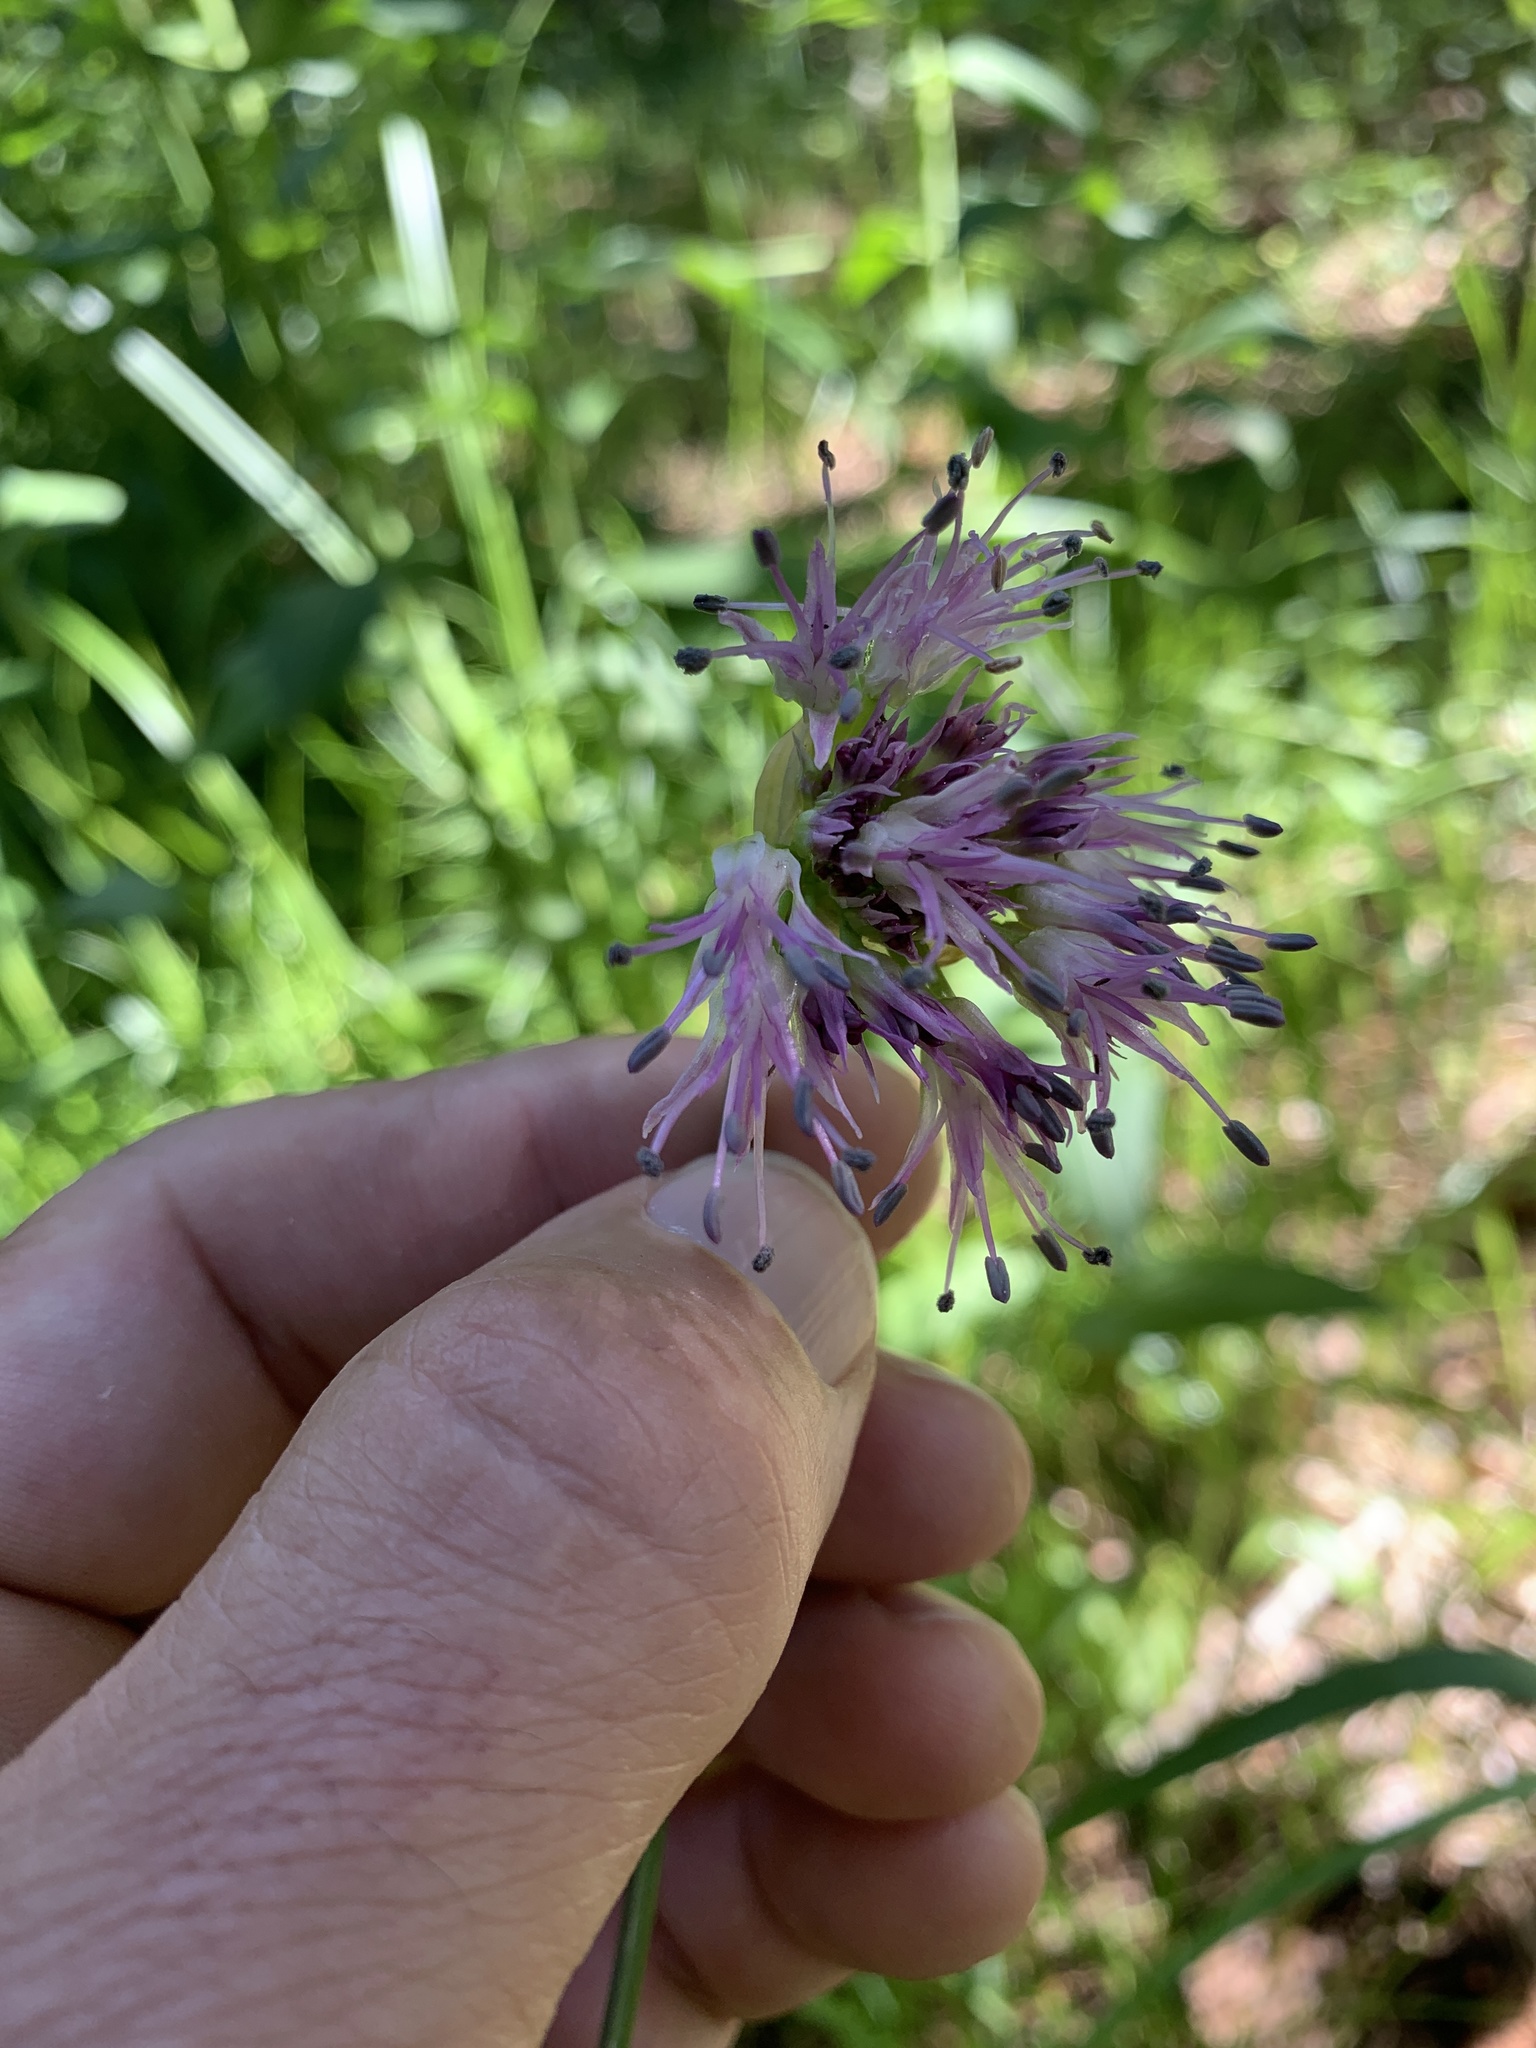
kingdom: Plantae
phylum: Tracheophyta
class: Liliopsida
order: Asparagales
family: Amaryllidaceae
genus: Allium
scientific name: Allium validum
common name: Pacific mountain onion
